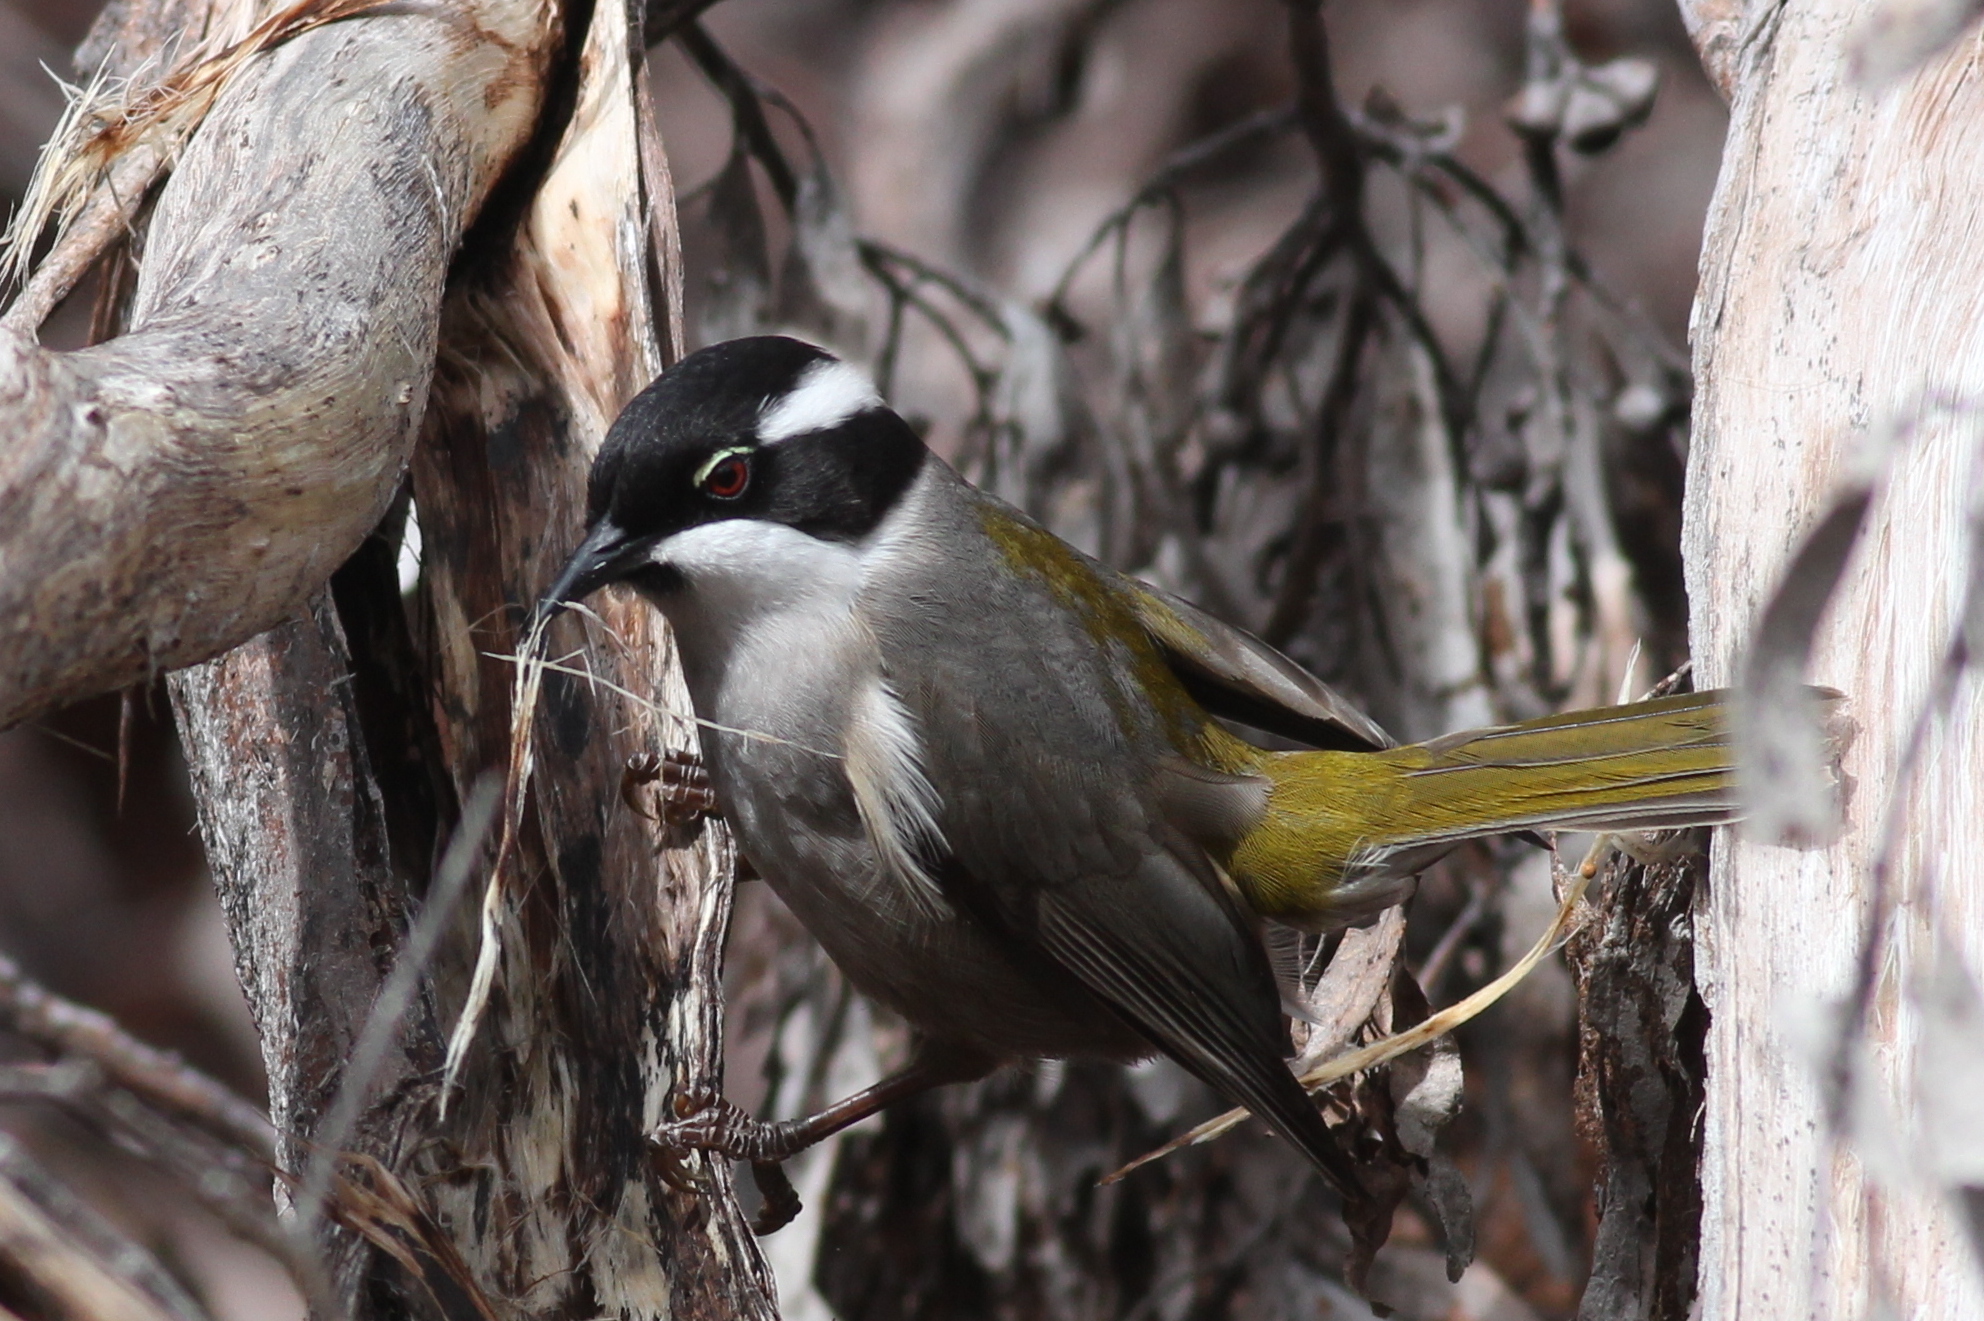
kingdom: Animalia
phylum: Chordata
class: Aves
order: Passeriformes
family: Meliphagidae
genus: Melithreptus
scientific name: Melithreptus validirostris
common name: Strong-billed honeyeater
